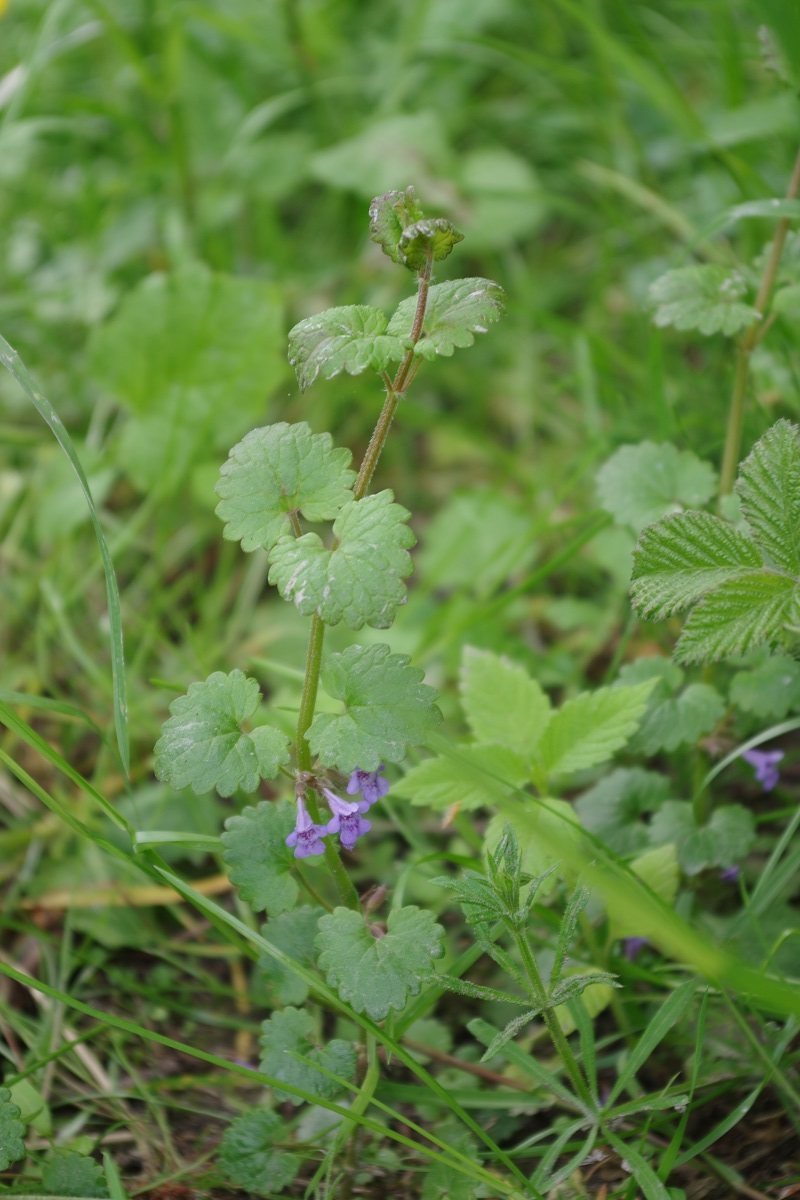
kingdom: Plantae
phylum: Tracheophyta
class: Magnoliopsida
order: Lamiales
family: Lamiaceae
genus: Glechoma
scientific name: Glechoma hederacea
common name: Ground ivy
